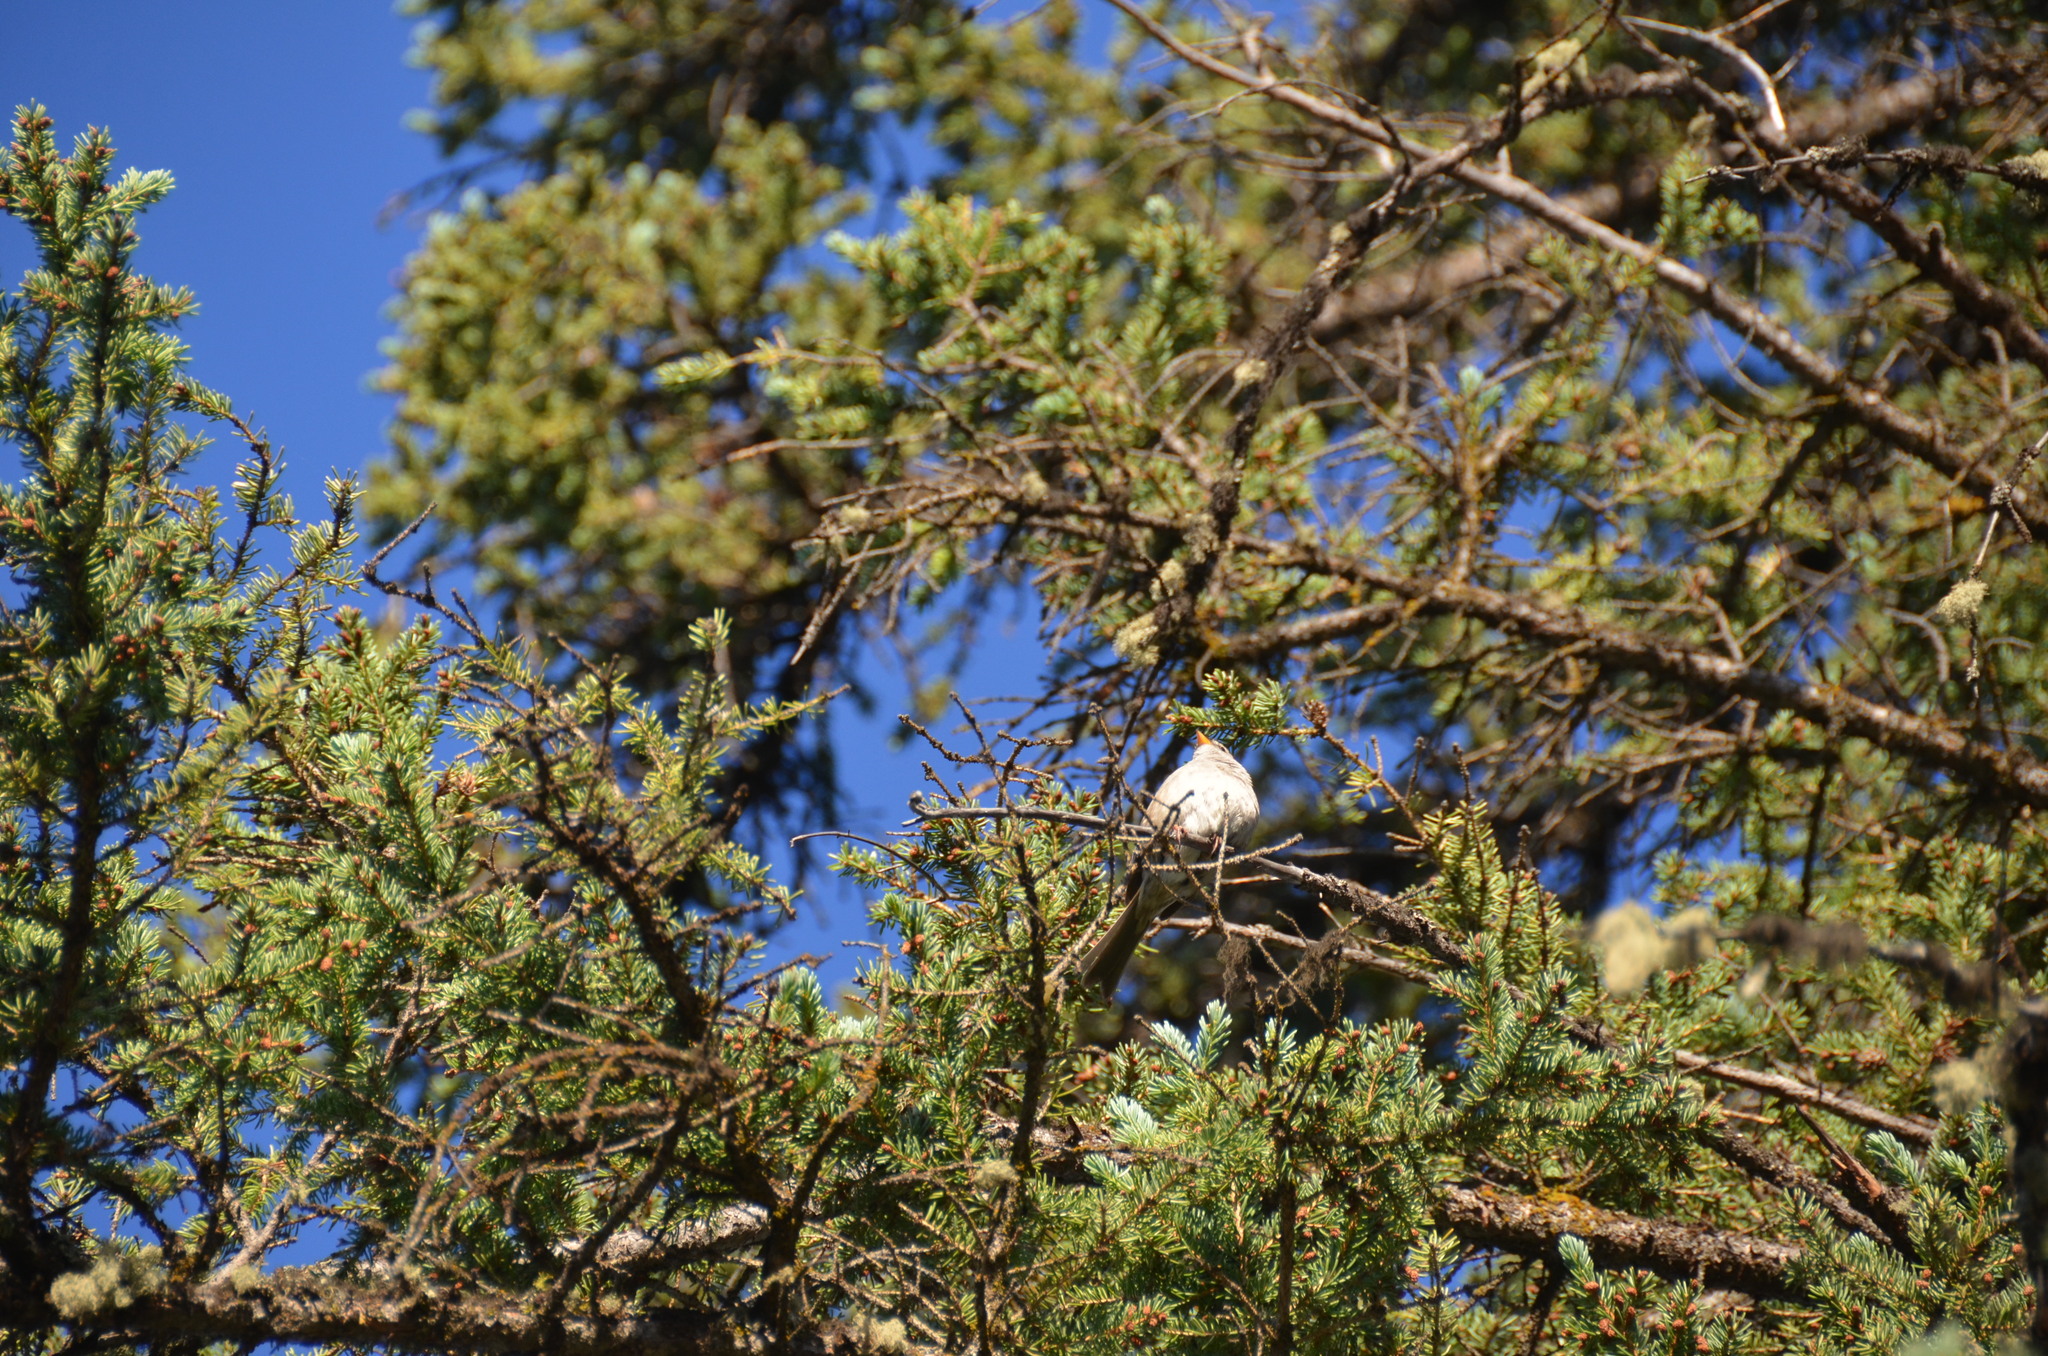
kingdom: Animalia
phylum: Chordata
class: Aves
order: Passeriformes
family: Passerellidae
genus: Zonotrichia
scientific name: Zonotrichia leucophrys
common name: White-crowned sparrow
